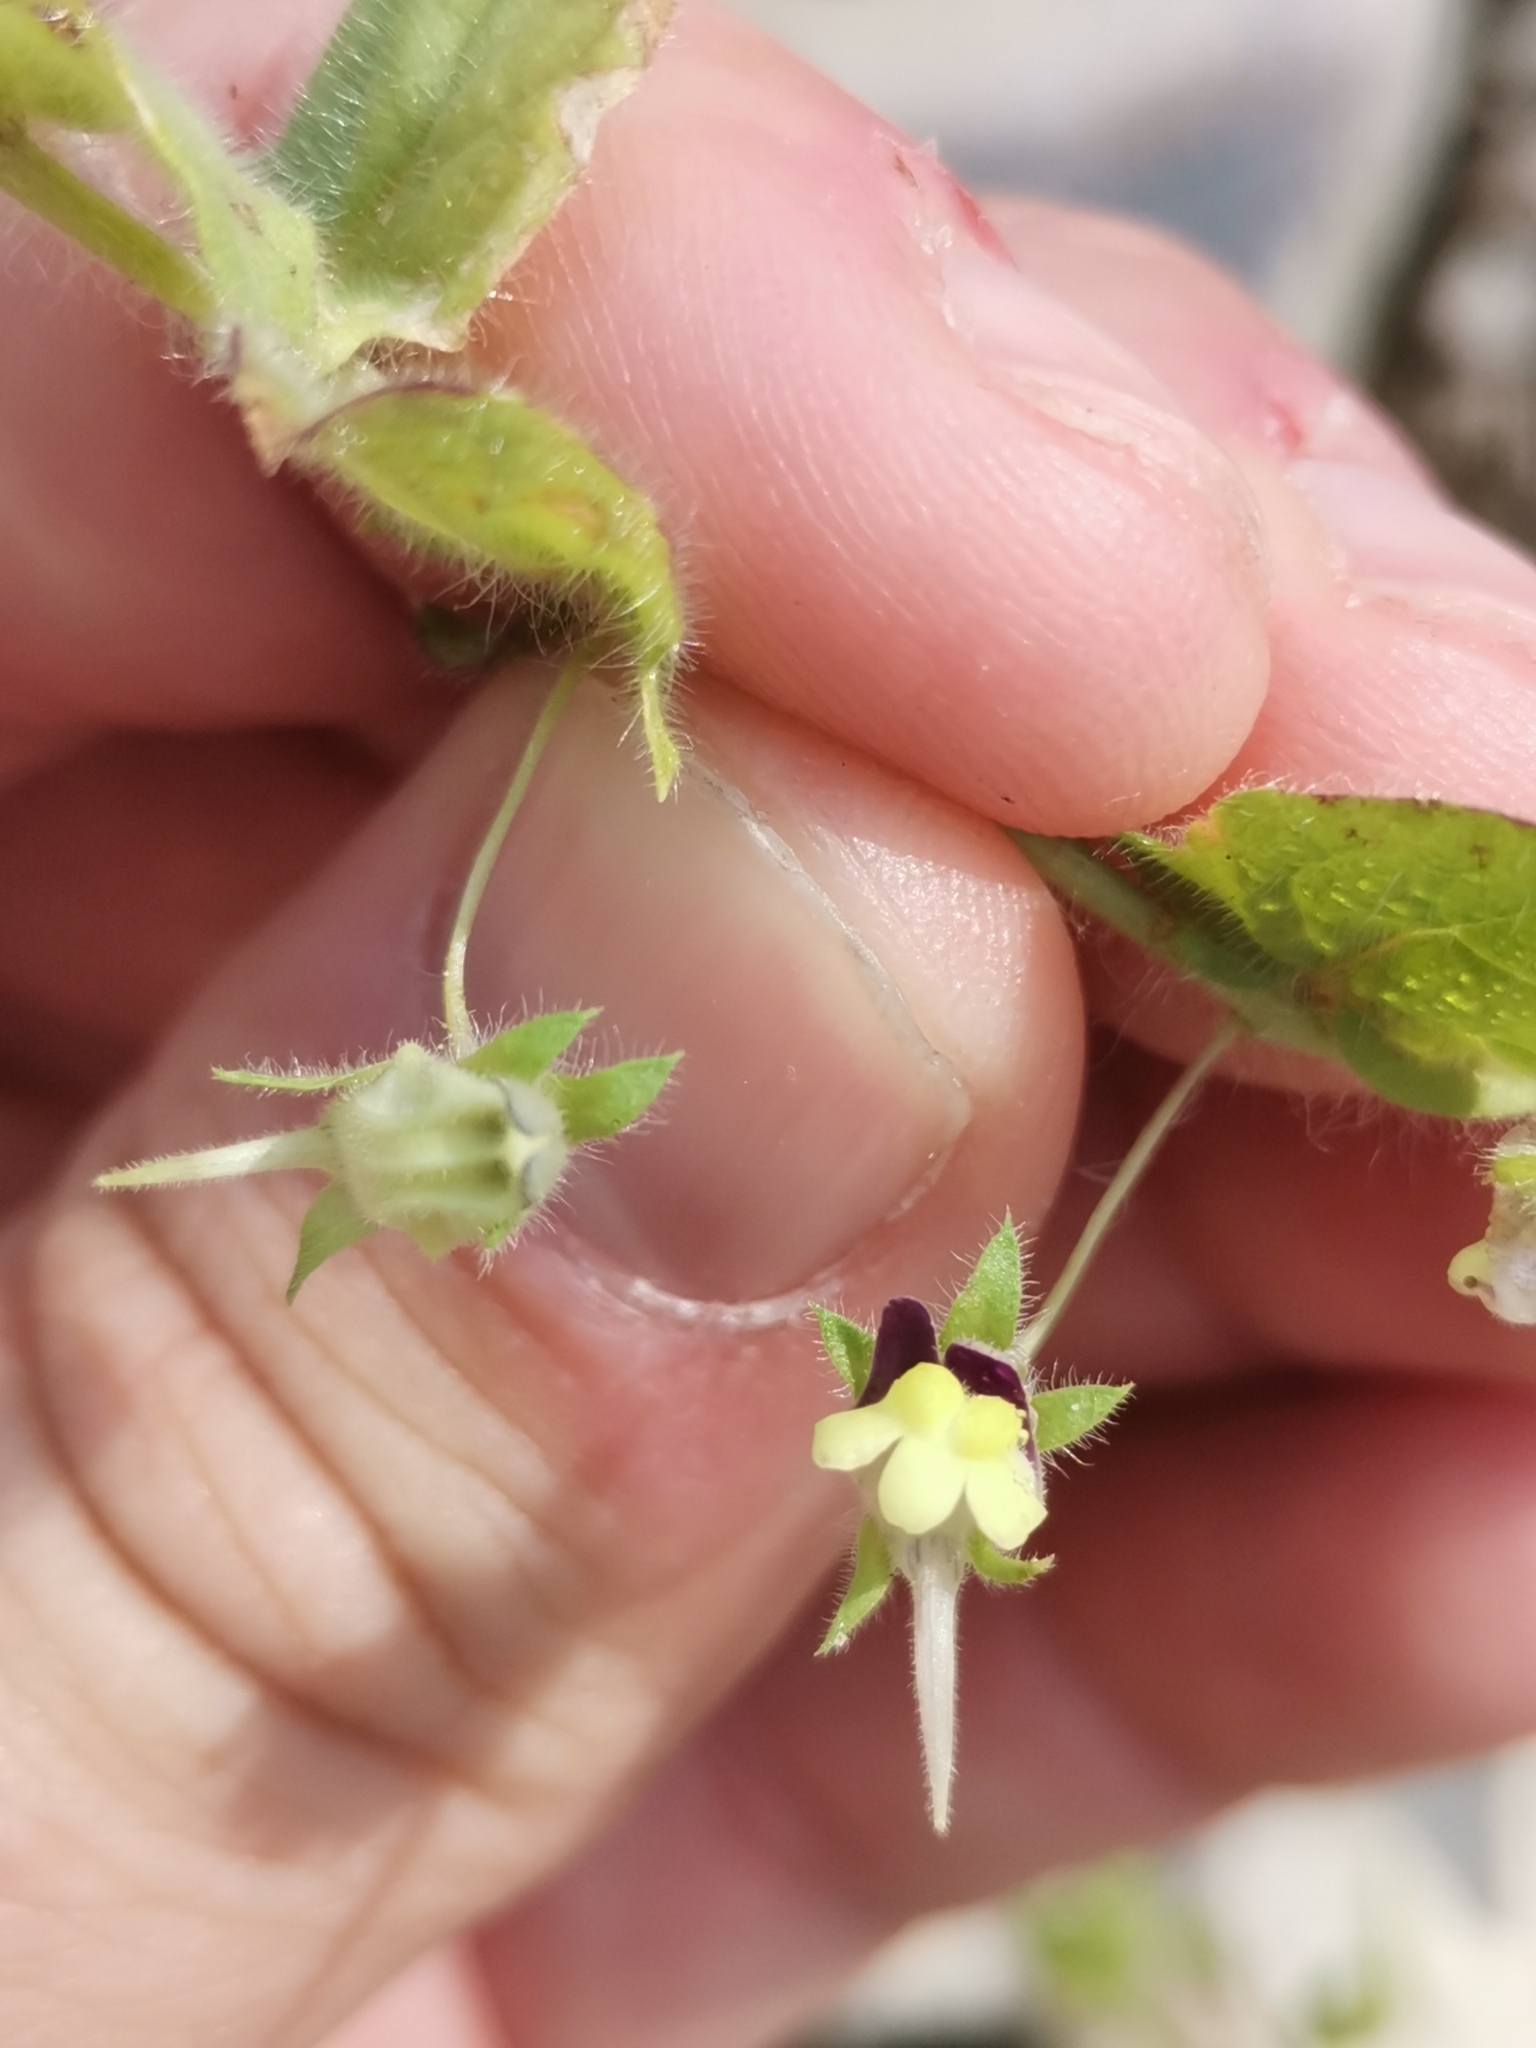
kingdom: Plantae
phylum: Tracheophyta
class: Magnoliopsida
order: Lamiales
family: Plantaginaceae
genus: Kickxia
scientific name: Kickxia elatine
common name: Sharp-leaved fluellen
